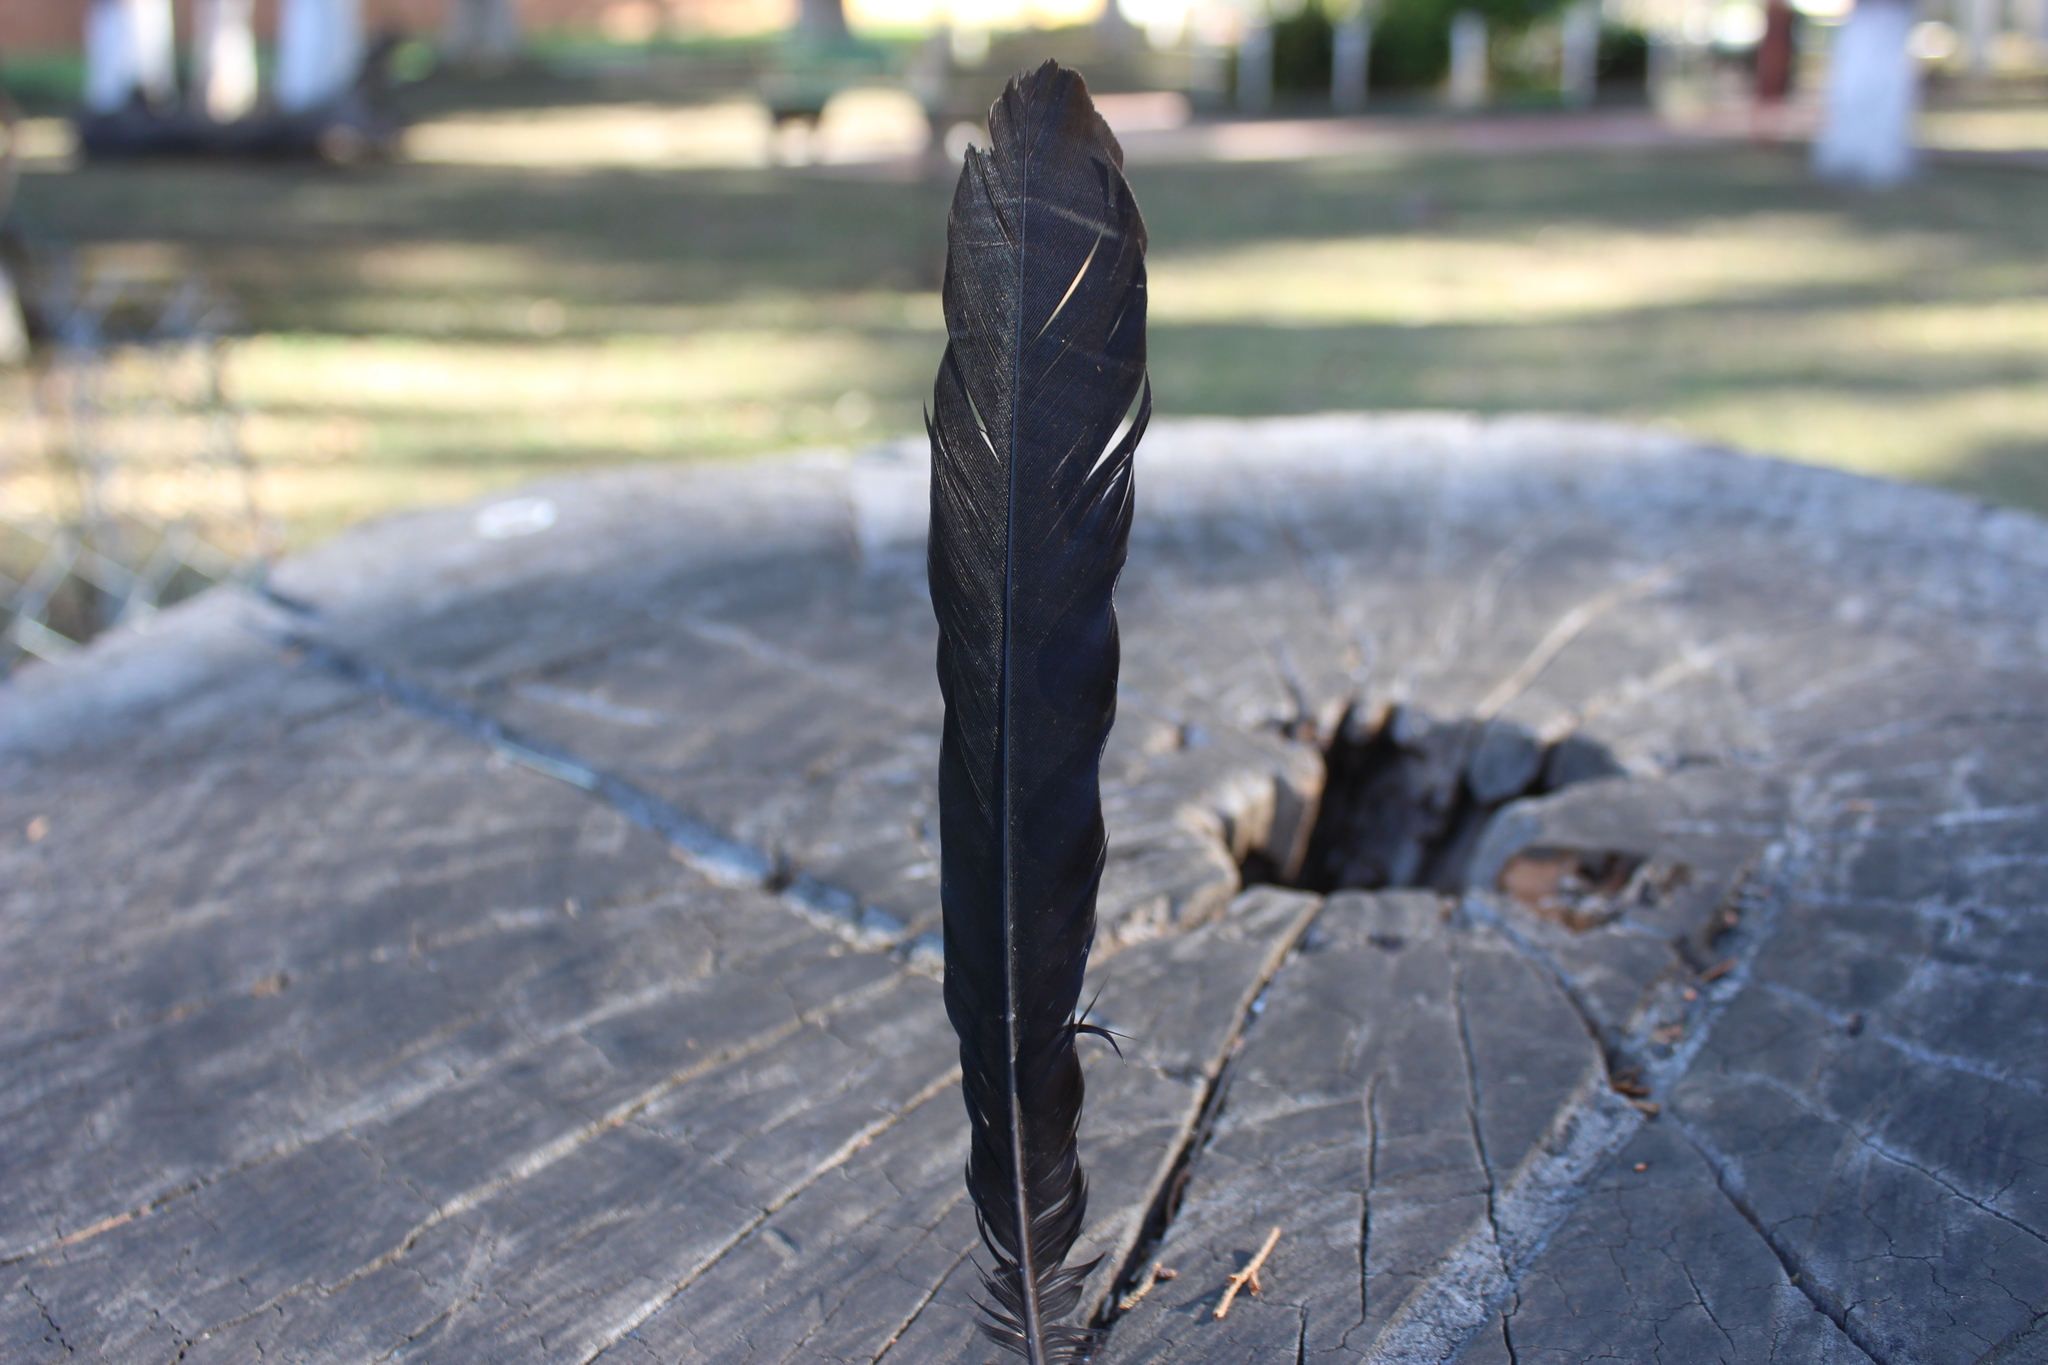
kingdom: Animalia
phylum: Chordata
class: Aves
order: Passeriformes
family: Icteridae
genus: Quiscalus
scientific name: Quiscalus mexicanus
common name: Great-tailed grackle
